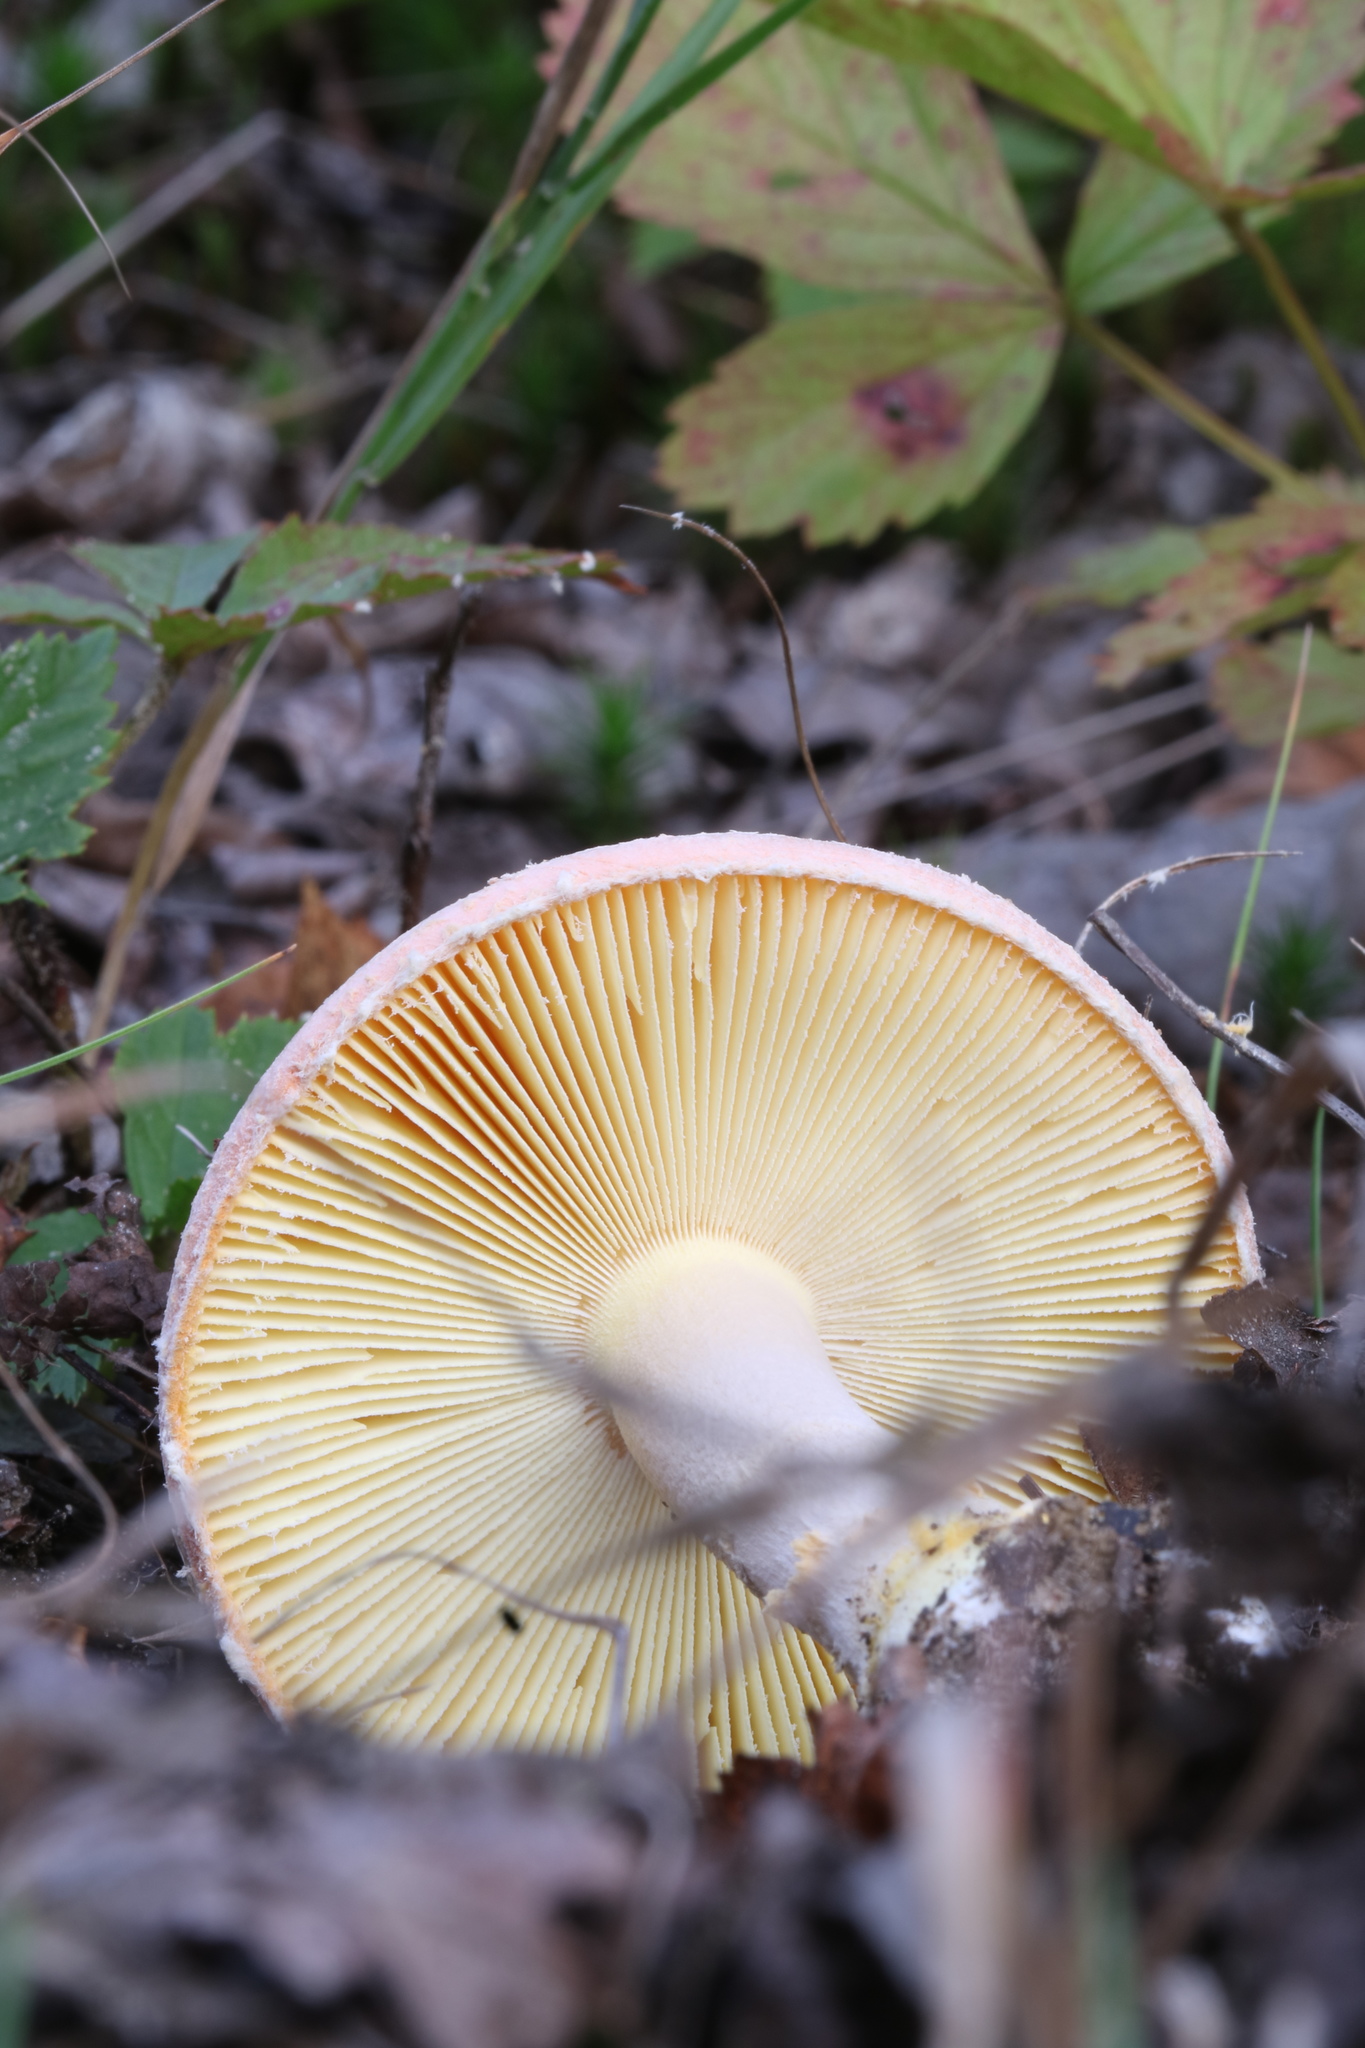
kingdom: Fungi
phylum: Basidiomycota
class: Agaricomycetes
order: Agaricales
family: Amanitaceae
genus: Amanita
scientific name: Amanita wellsii
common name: Salmon amanita
